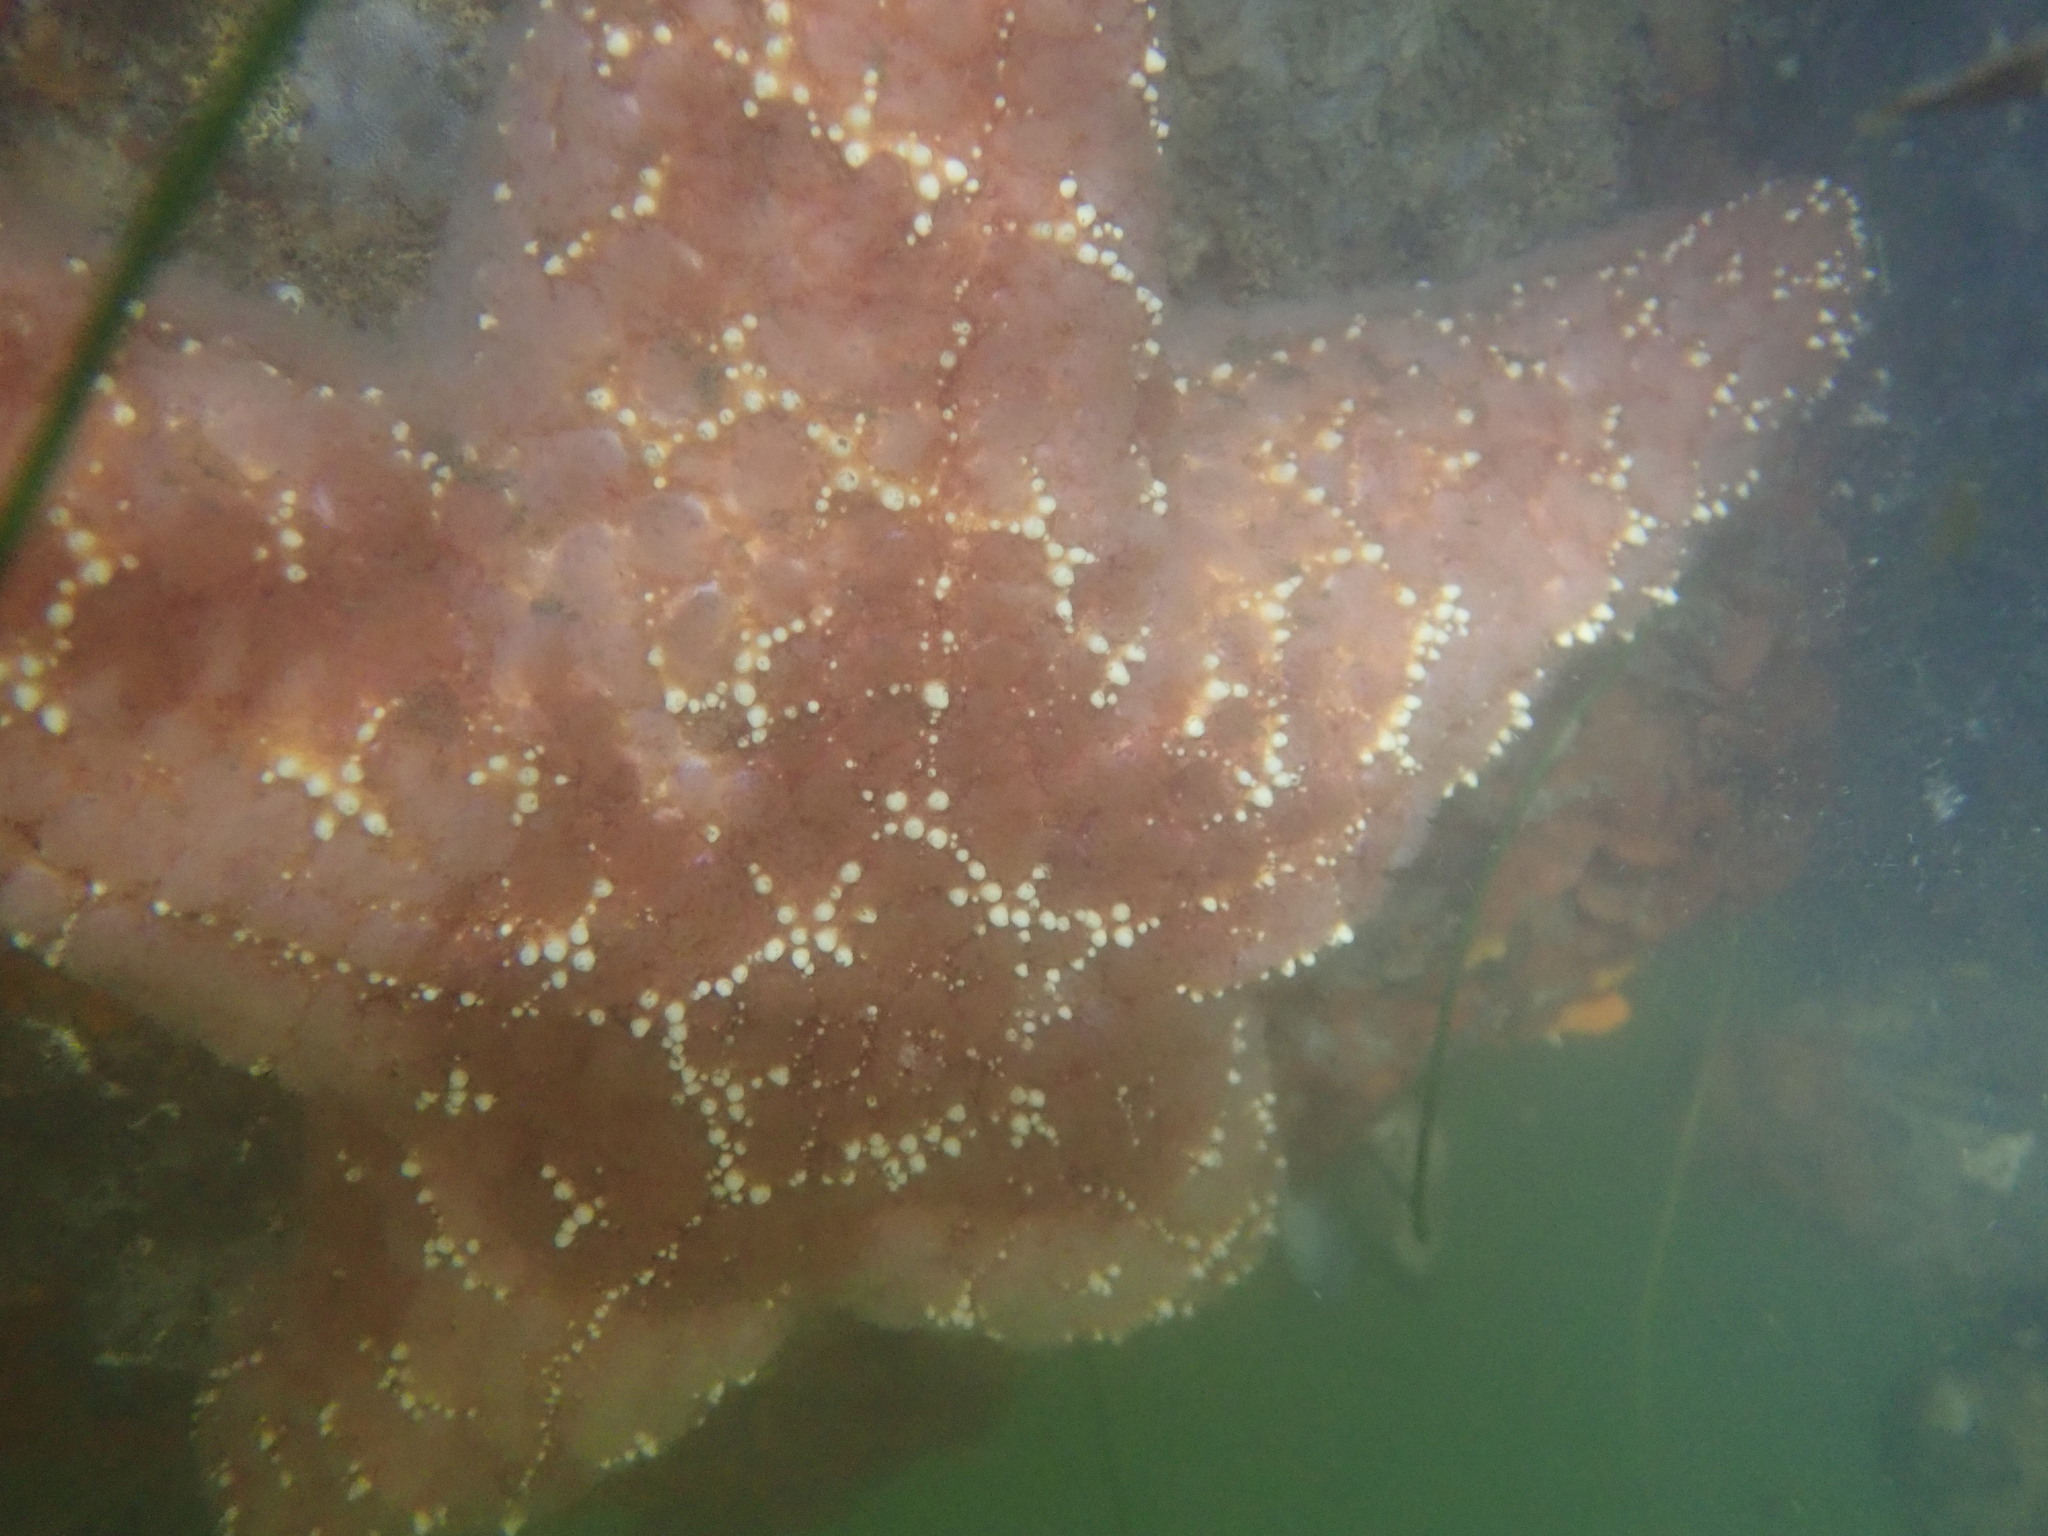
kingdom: Animalia
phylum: Echinodermata
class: Asteroidea
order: Forcipulatida
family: Asteriidae
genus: Pisaster
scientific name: Pisaster ochraceus
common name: Ochre stars
